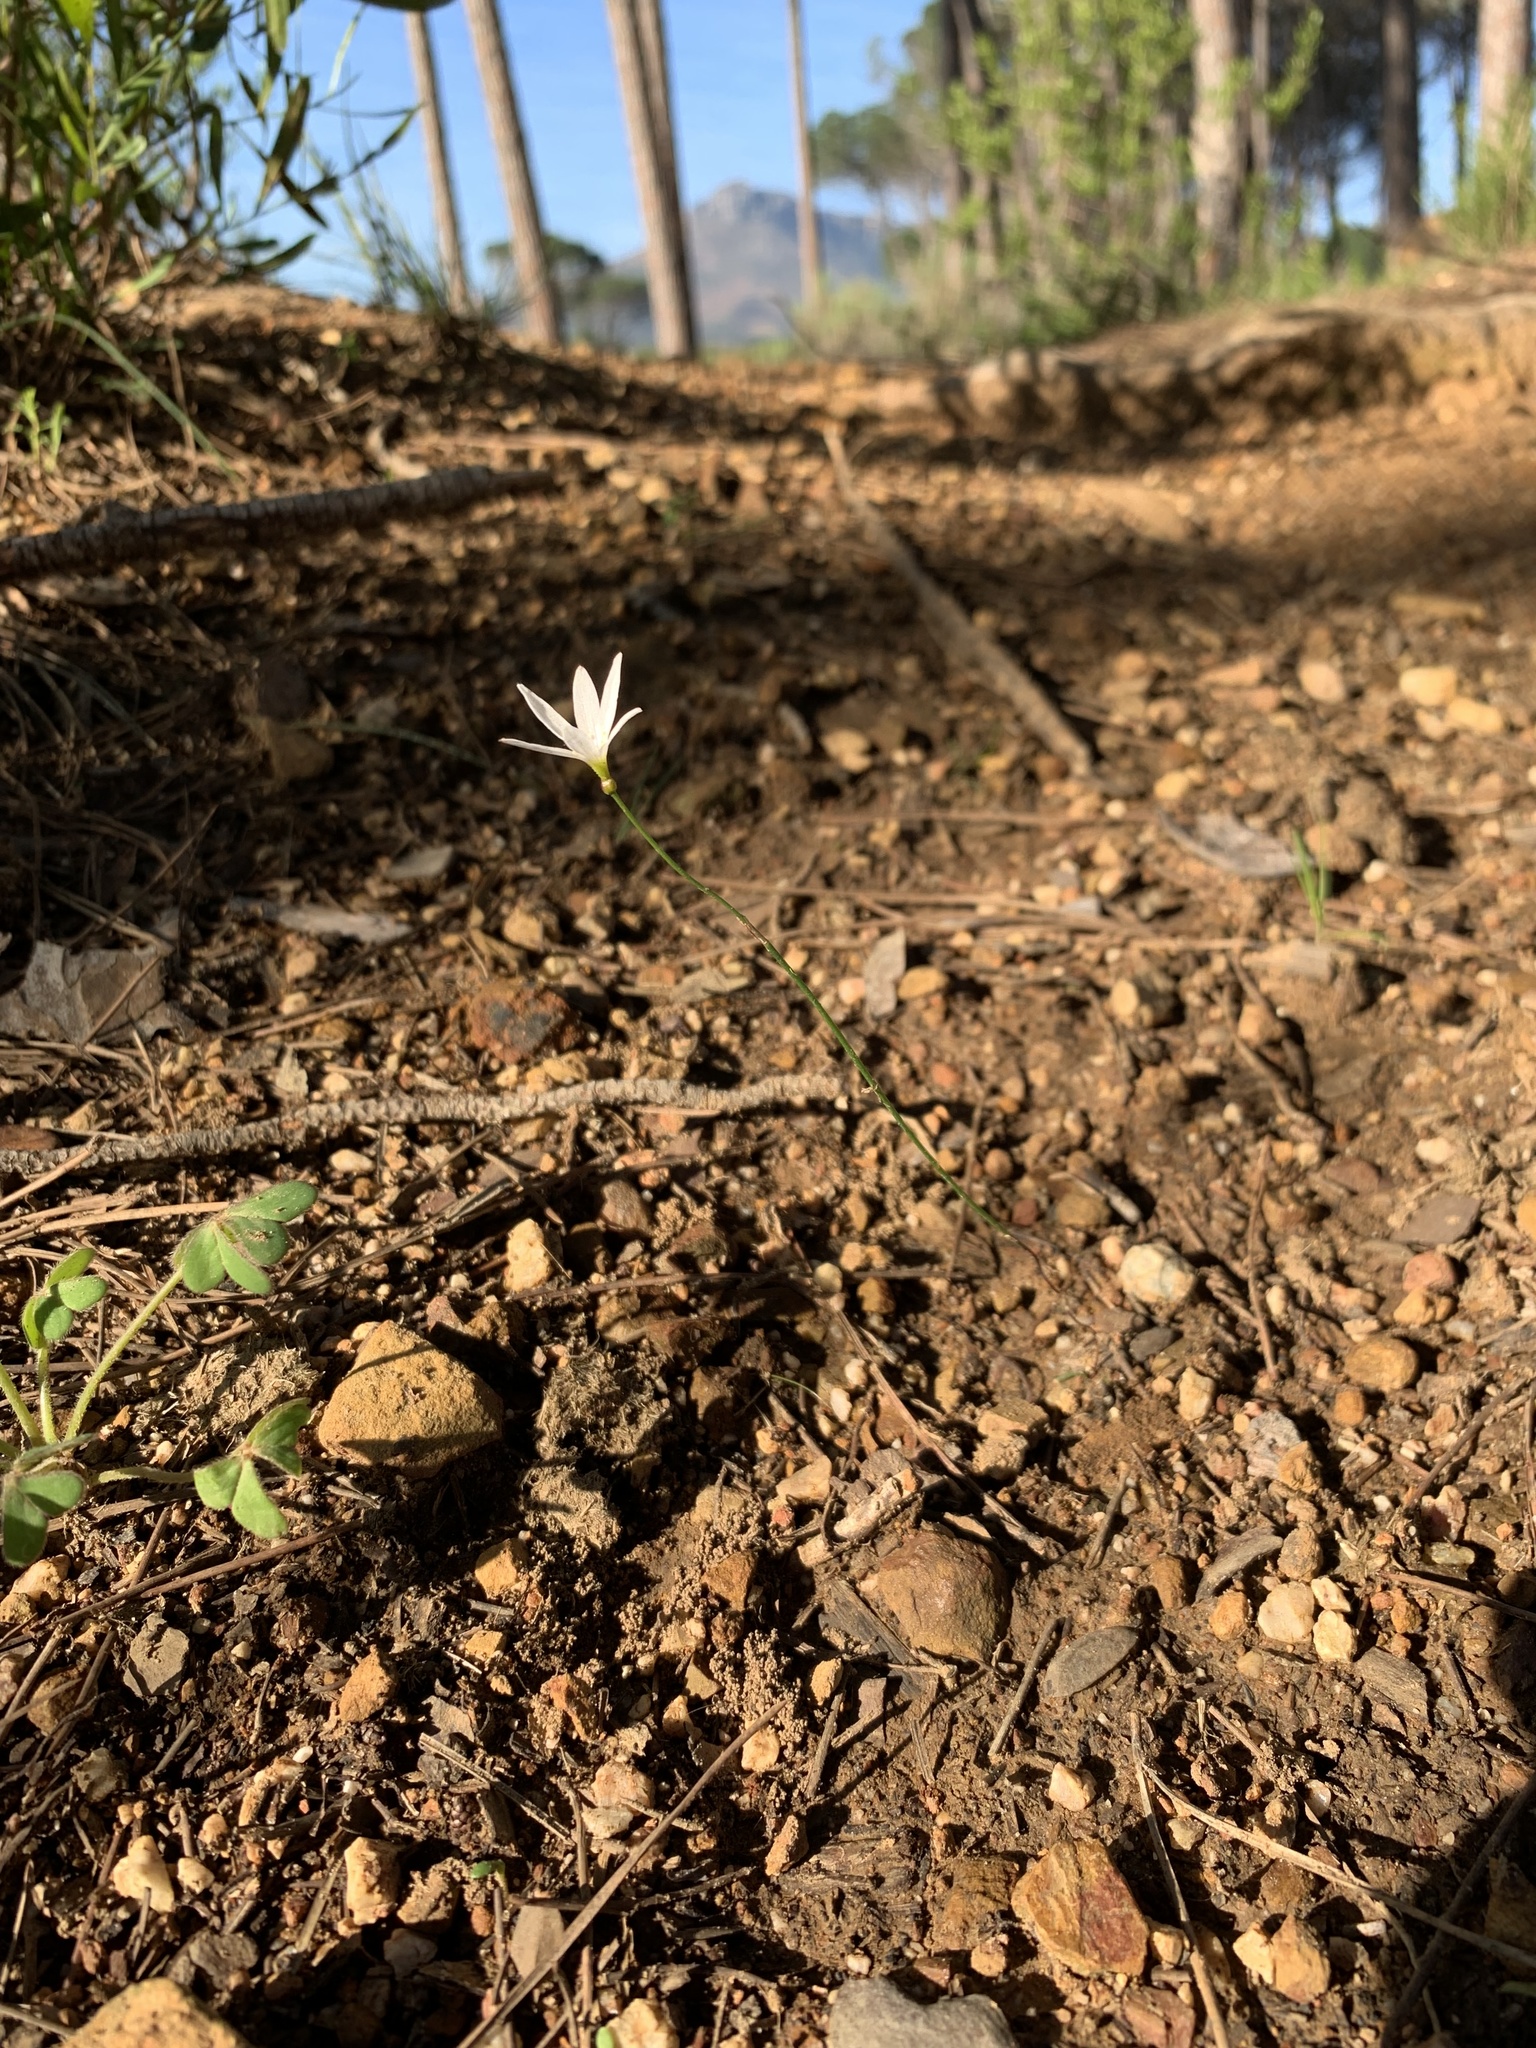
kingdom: Plantae
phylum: Tracheophyta
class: Liliopsida
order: Asparagales
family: Amaryllidaceae
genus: Strumaria
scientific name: Strumaria spiralis
